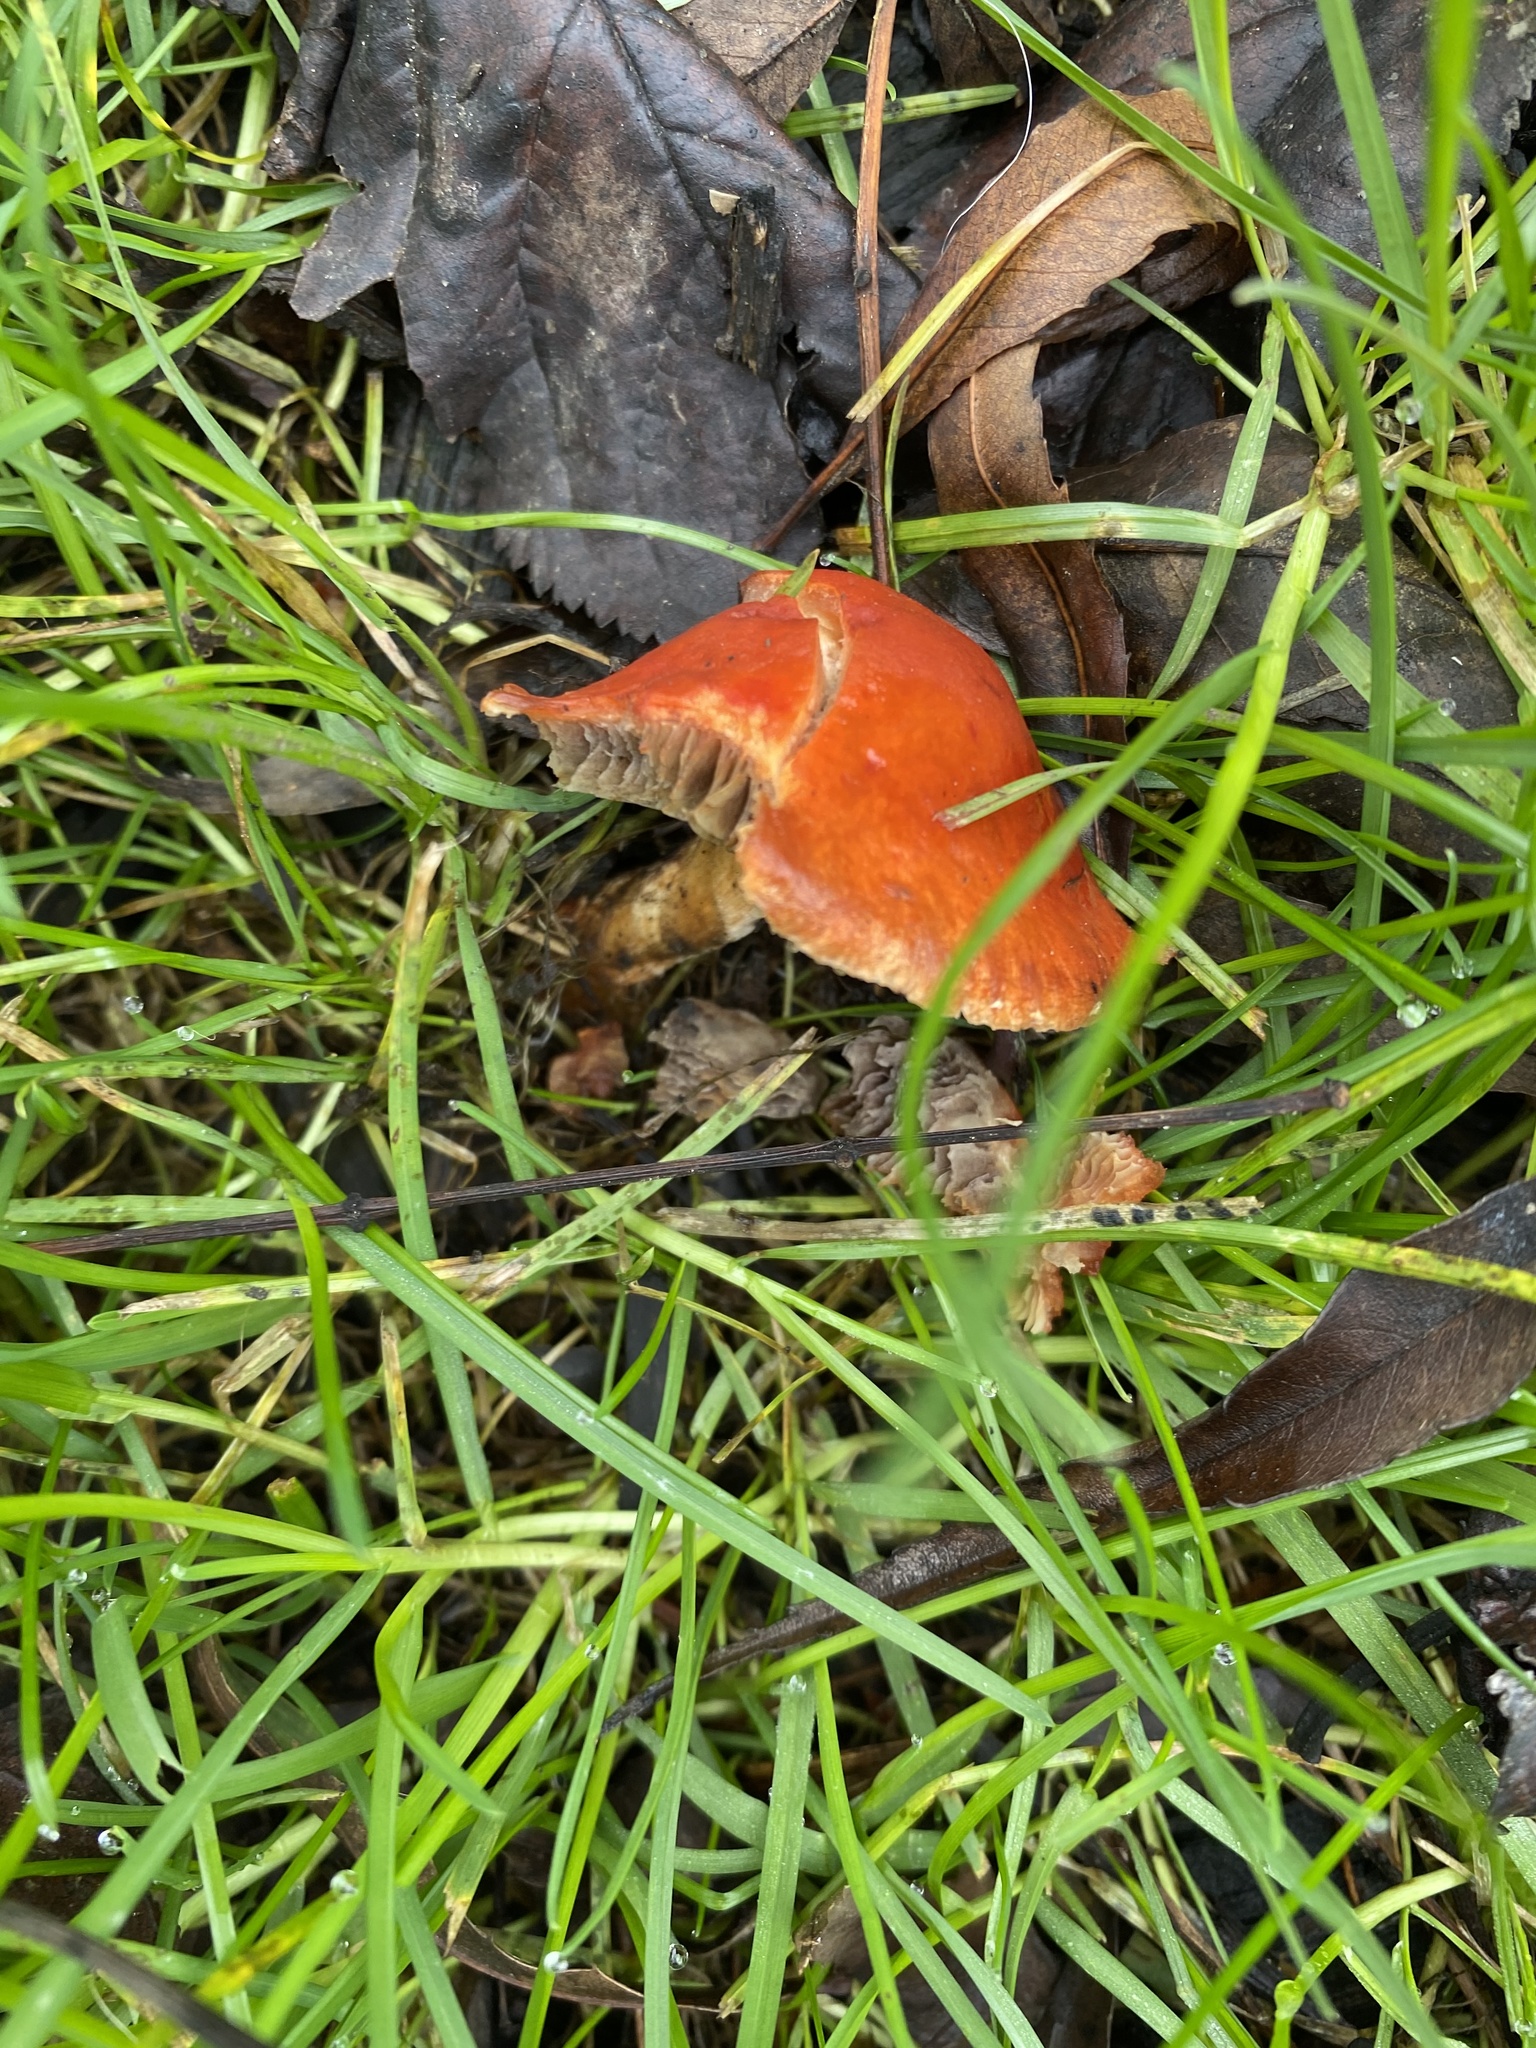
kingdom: Fungi
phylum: Basidiomycota
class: Agaricomycetes
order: Agaricales
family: Strophariaceae
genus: Leratiomyces
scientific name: Leratiomyces ceres
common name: Redlead roundhead
